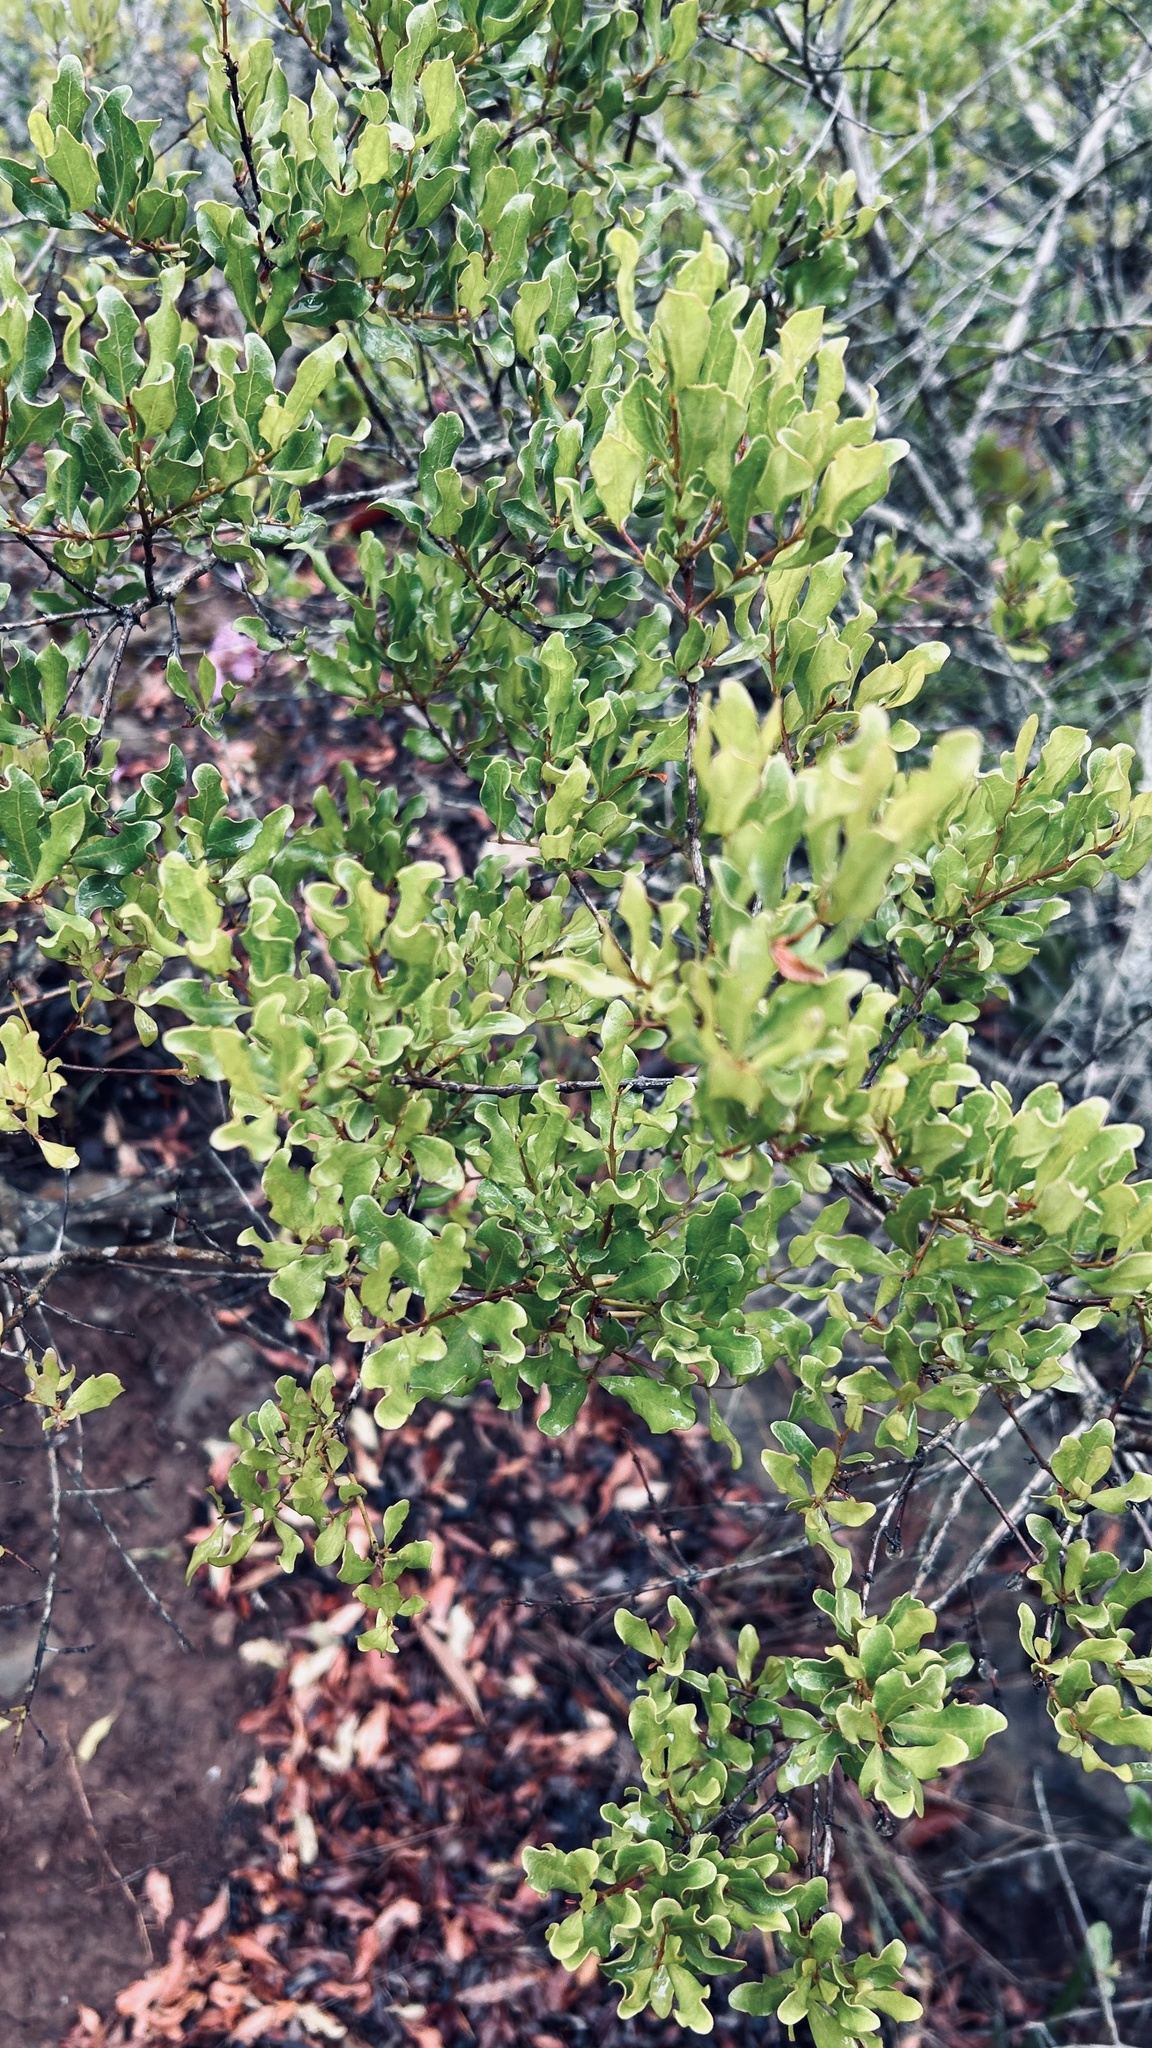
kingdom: Plantae
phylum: Tracheophyta
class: Magnoliopsida
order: Ericales
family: Ebenaceae
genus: Euclea
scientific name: Euclea undulata
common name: Small-leaved guarri
